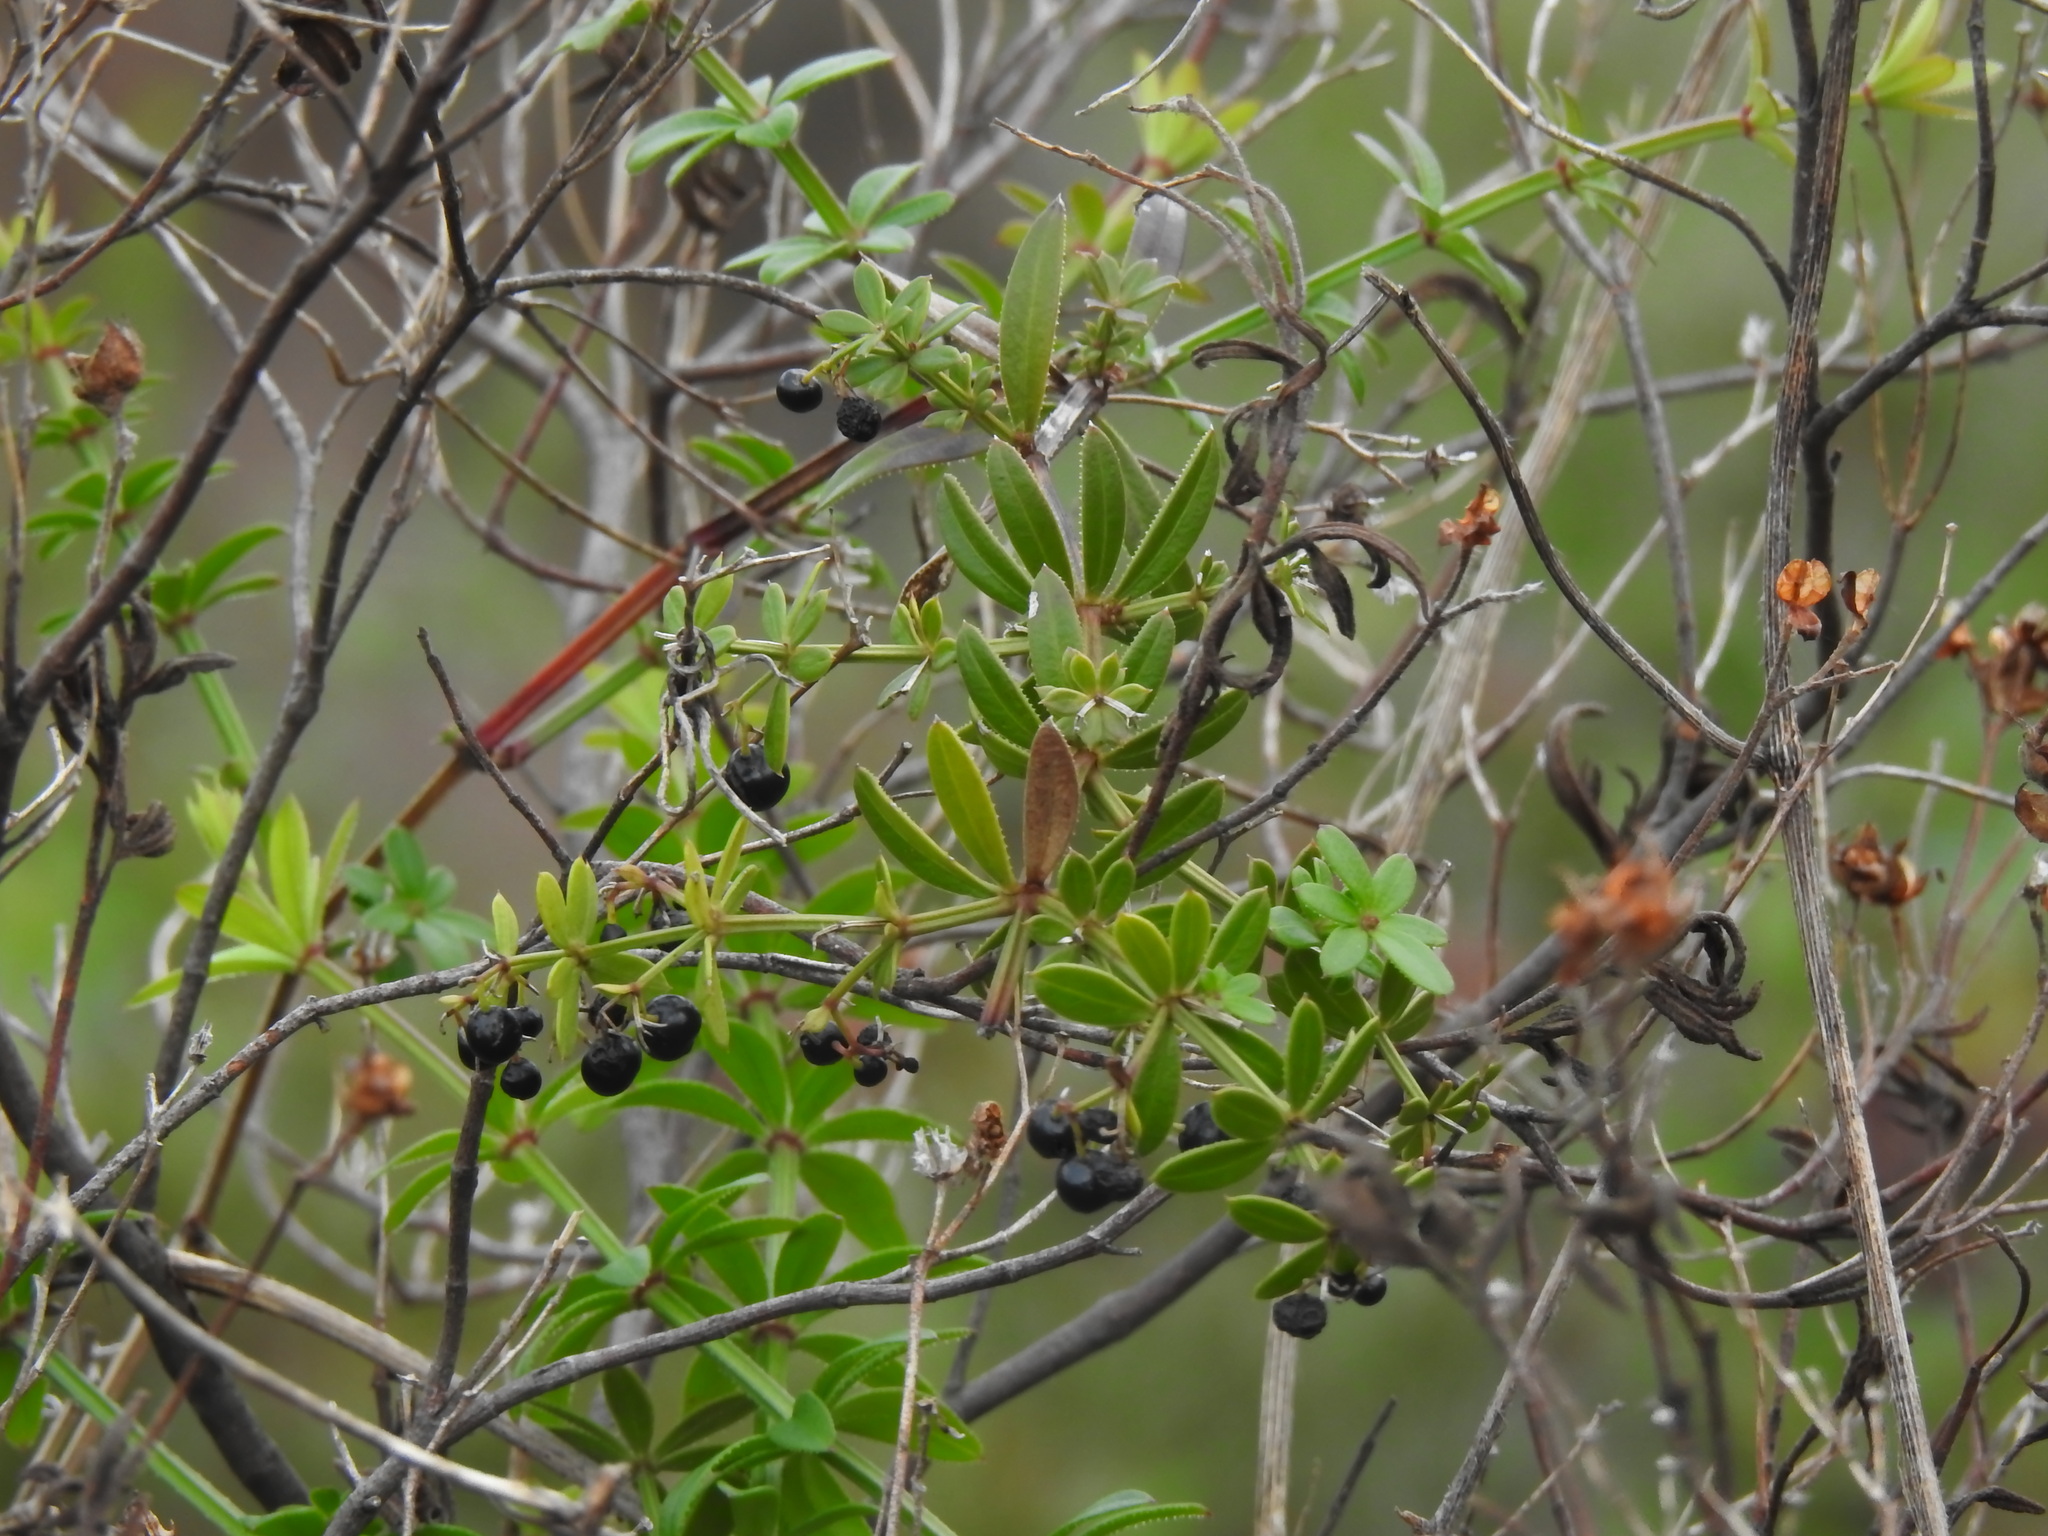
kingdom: Plantae
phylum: Tracheophyta
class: Magnoliopsida
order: Gentianales
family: Rubiaceae
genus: Rubia
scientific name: Rubia peregrina
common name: Wild madder
